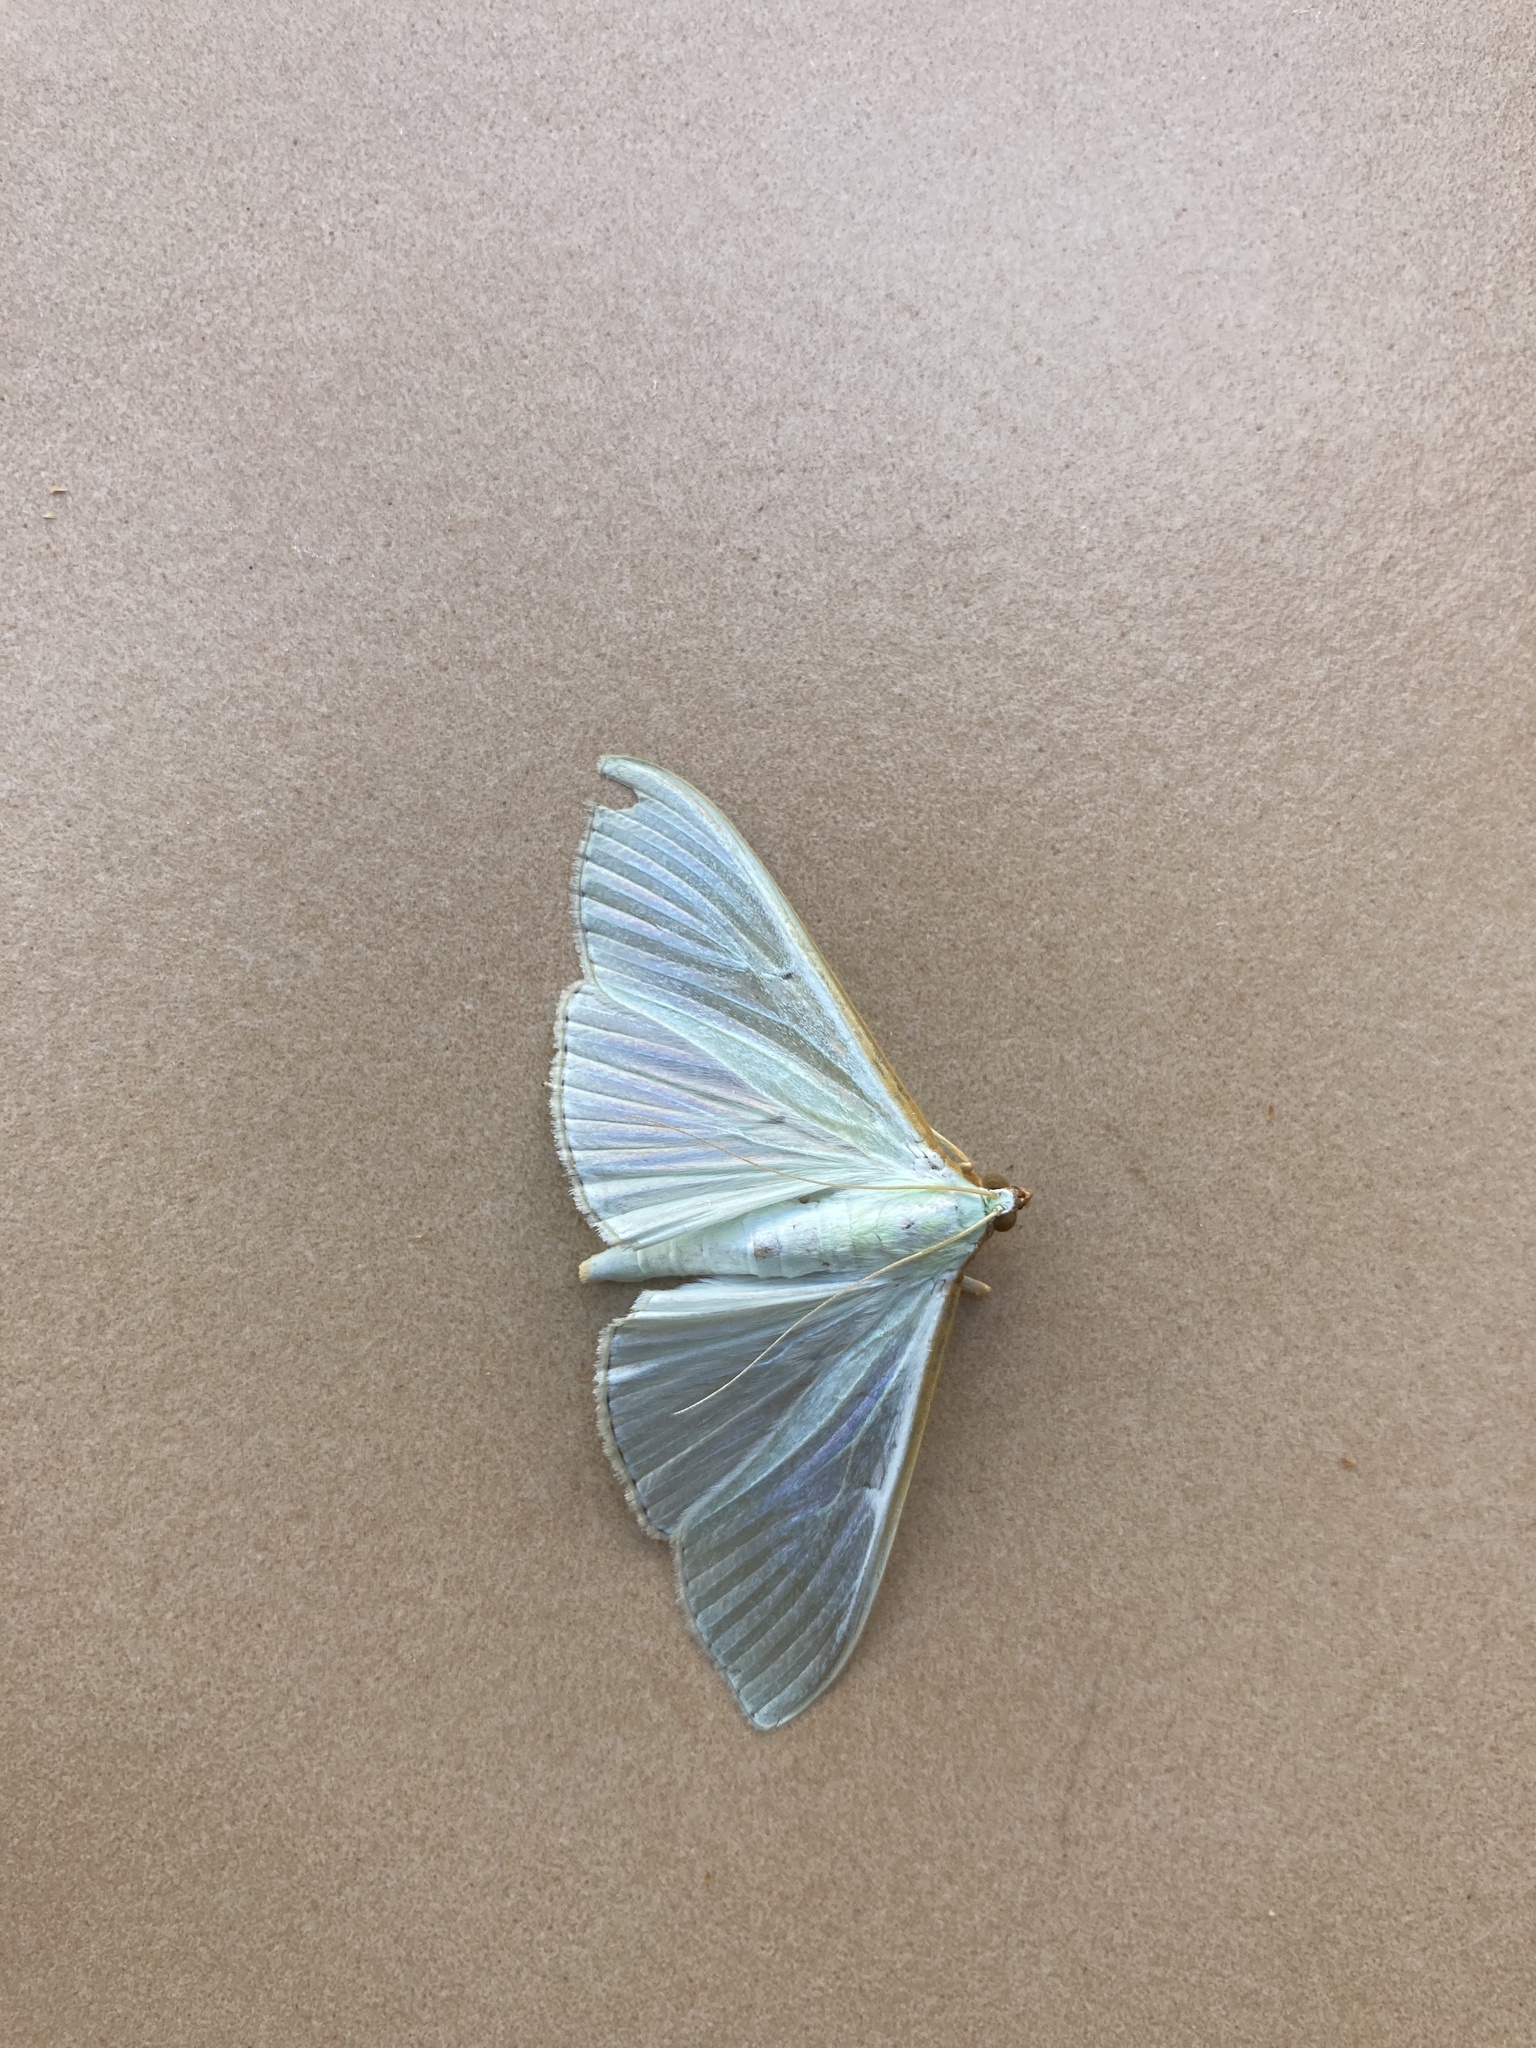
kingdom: Animalia
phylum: Arthropoda
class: Insecta
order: Lepidoptera
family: Crambidae
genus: Palpita
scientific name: Palpita vitrealis
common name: Olive-tree pearl
